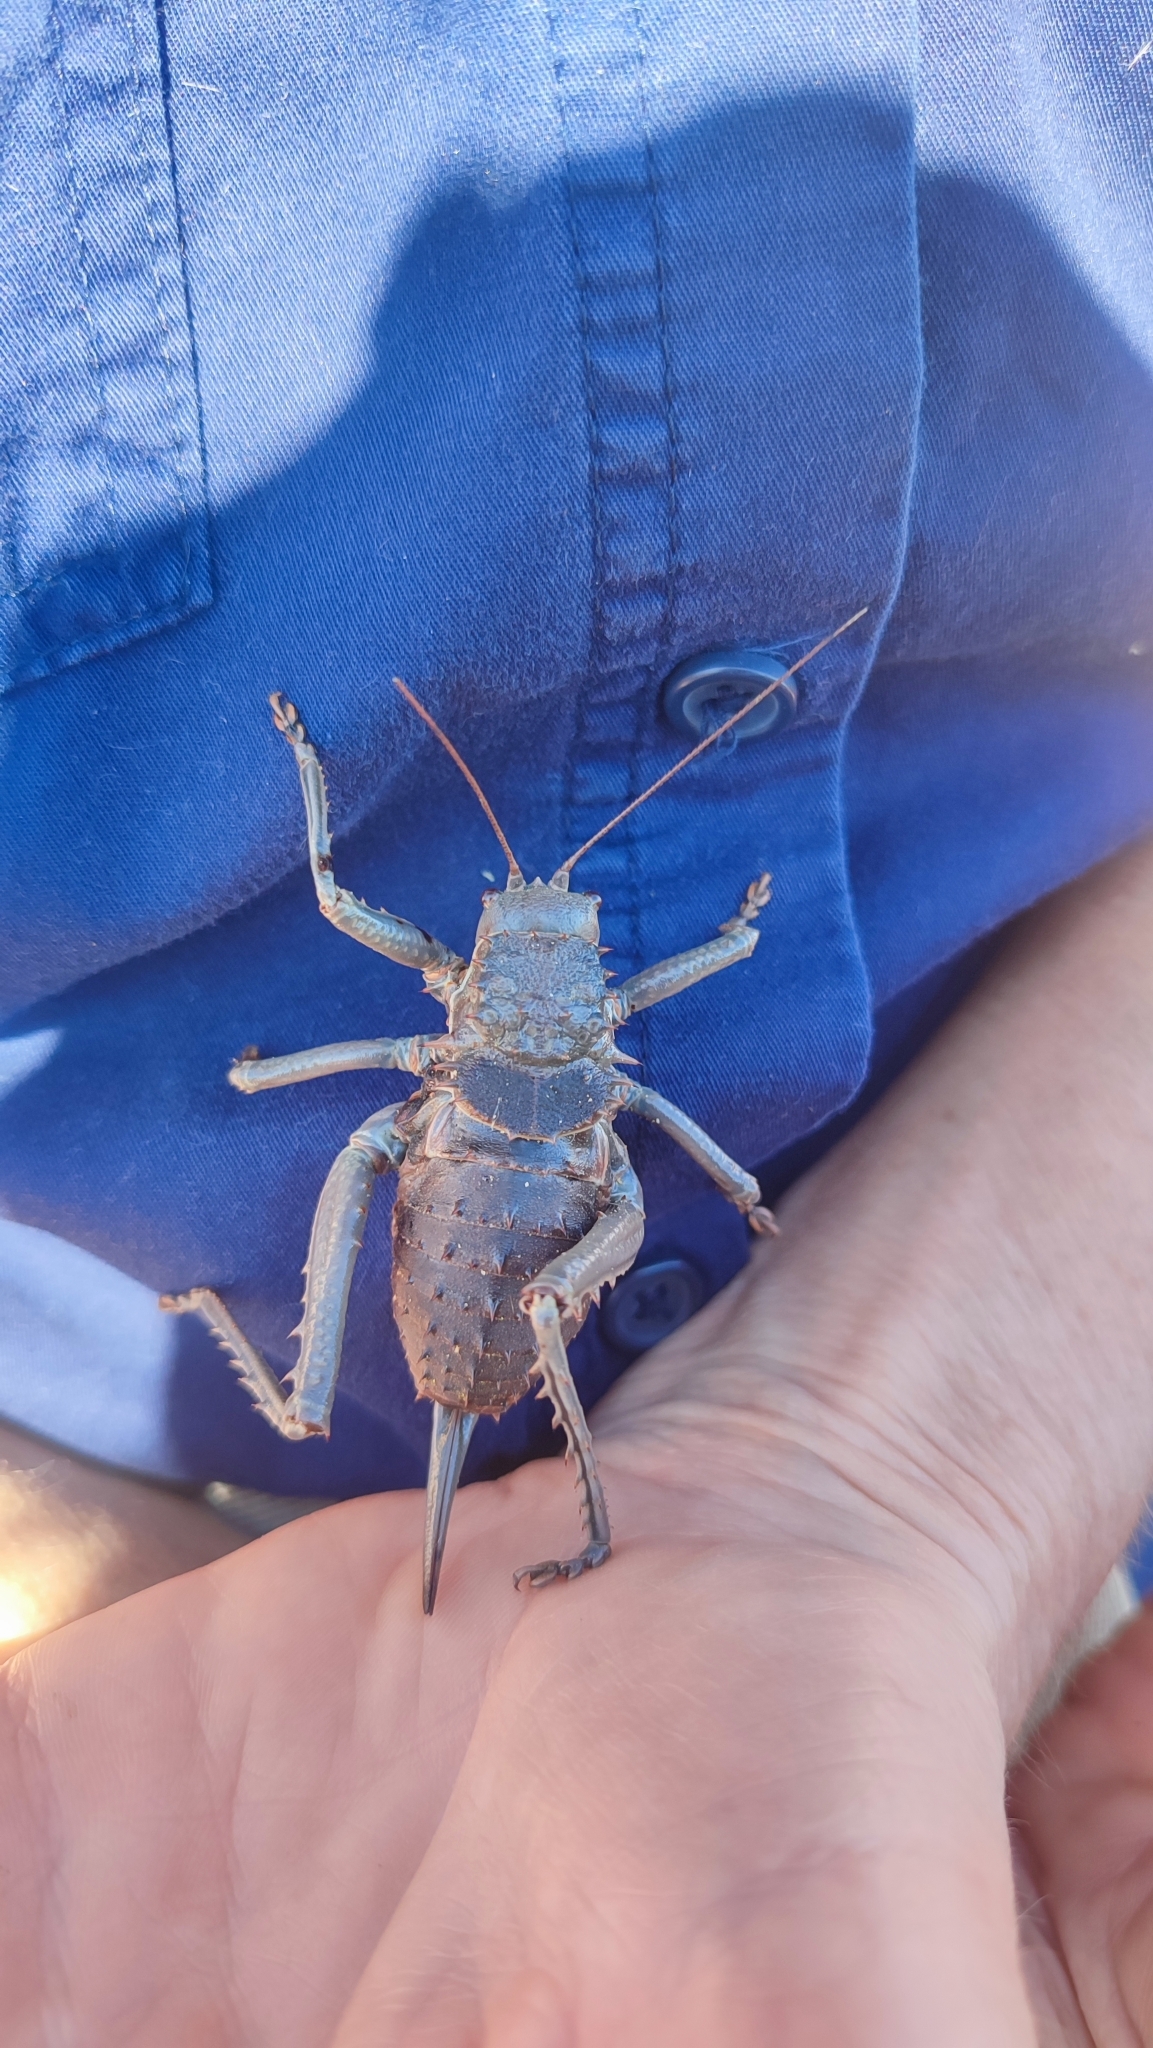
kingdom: Animalia
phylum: Arthropoda
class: Insecta
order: Orthoptera
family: Tettigoniidae
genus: Hetrodes
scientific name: Hetrodes pupus
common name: Koringkriek
